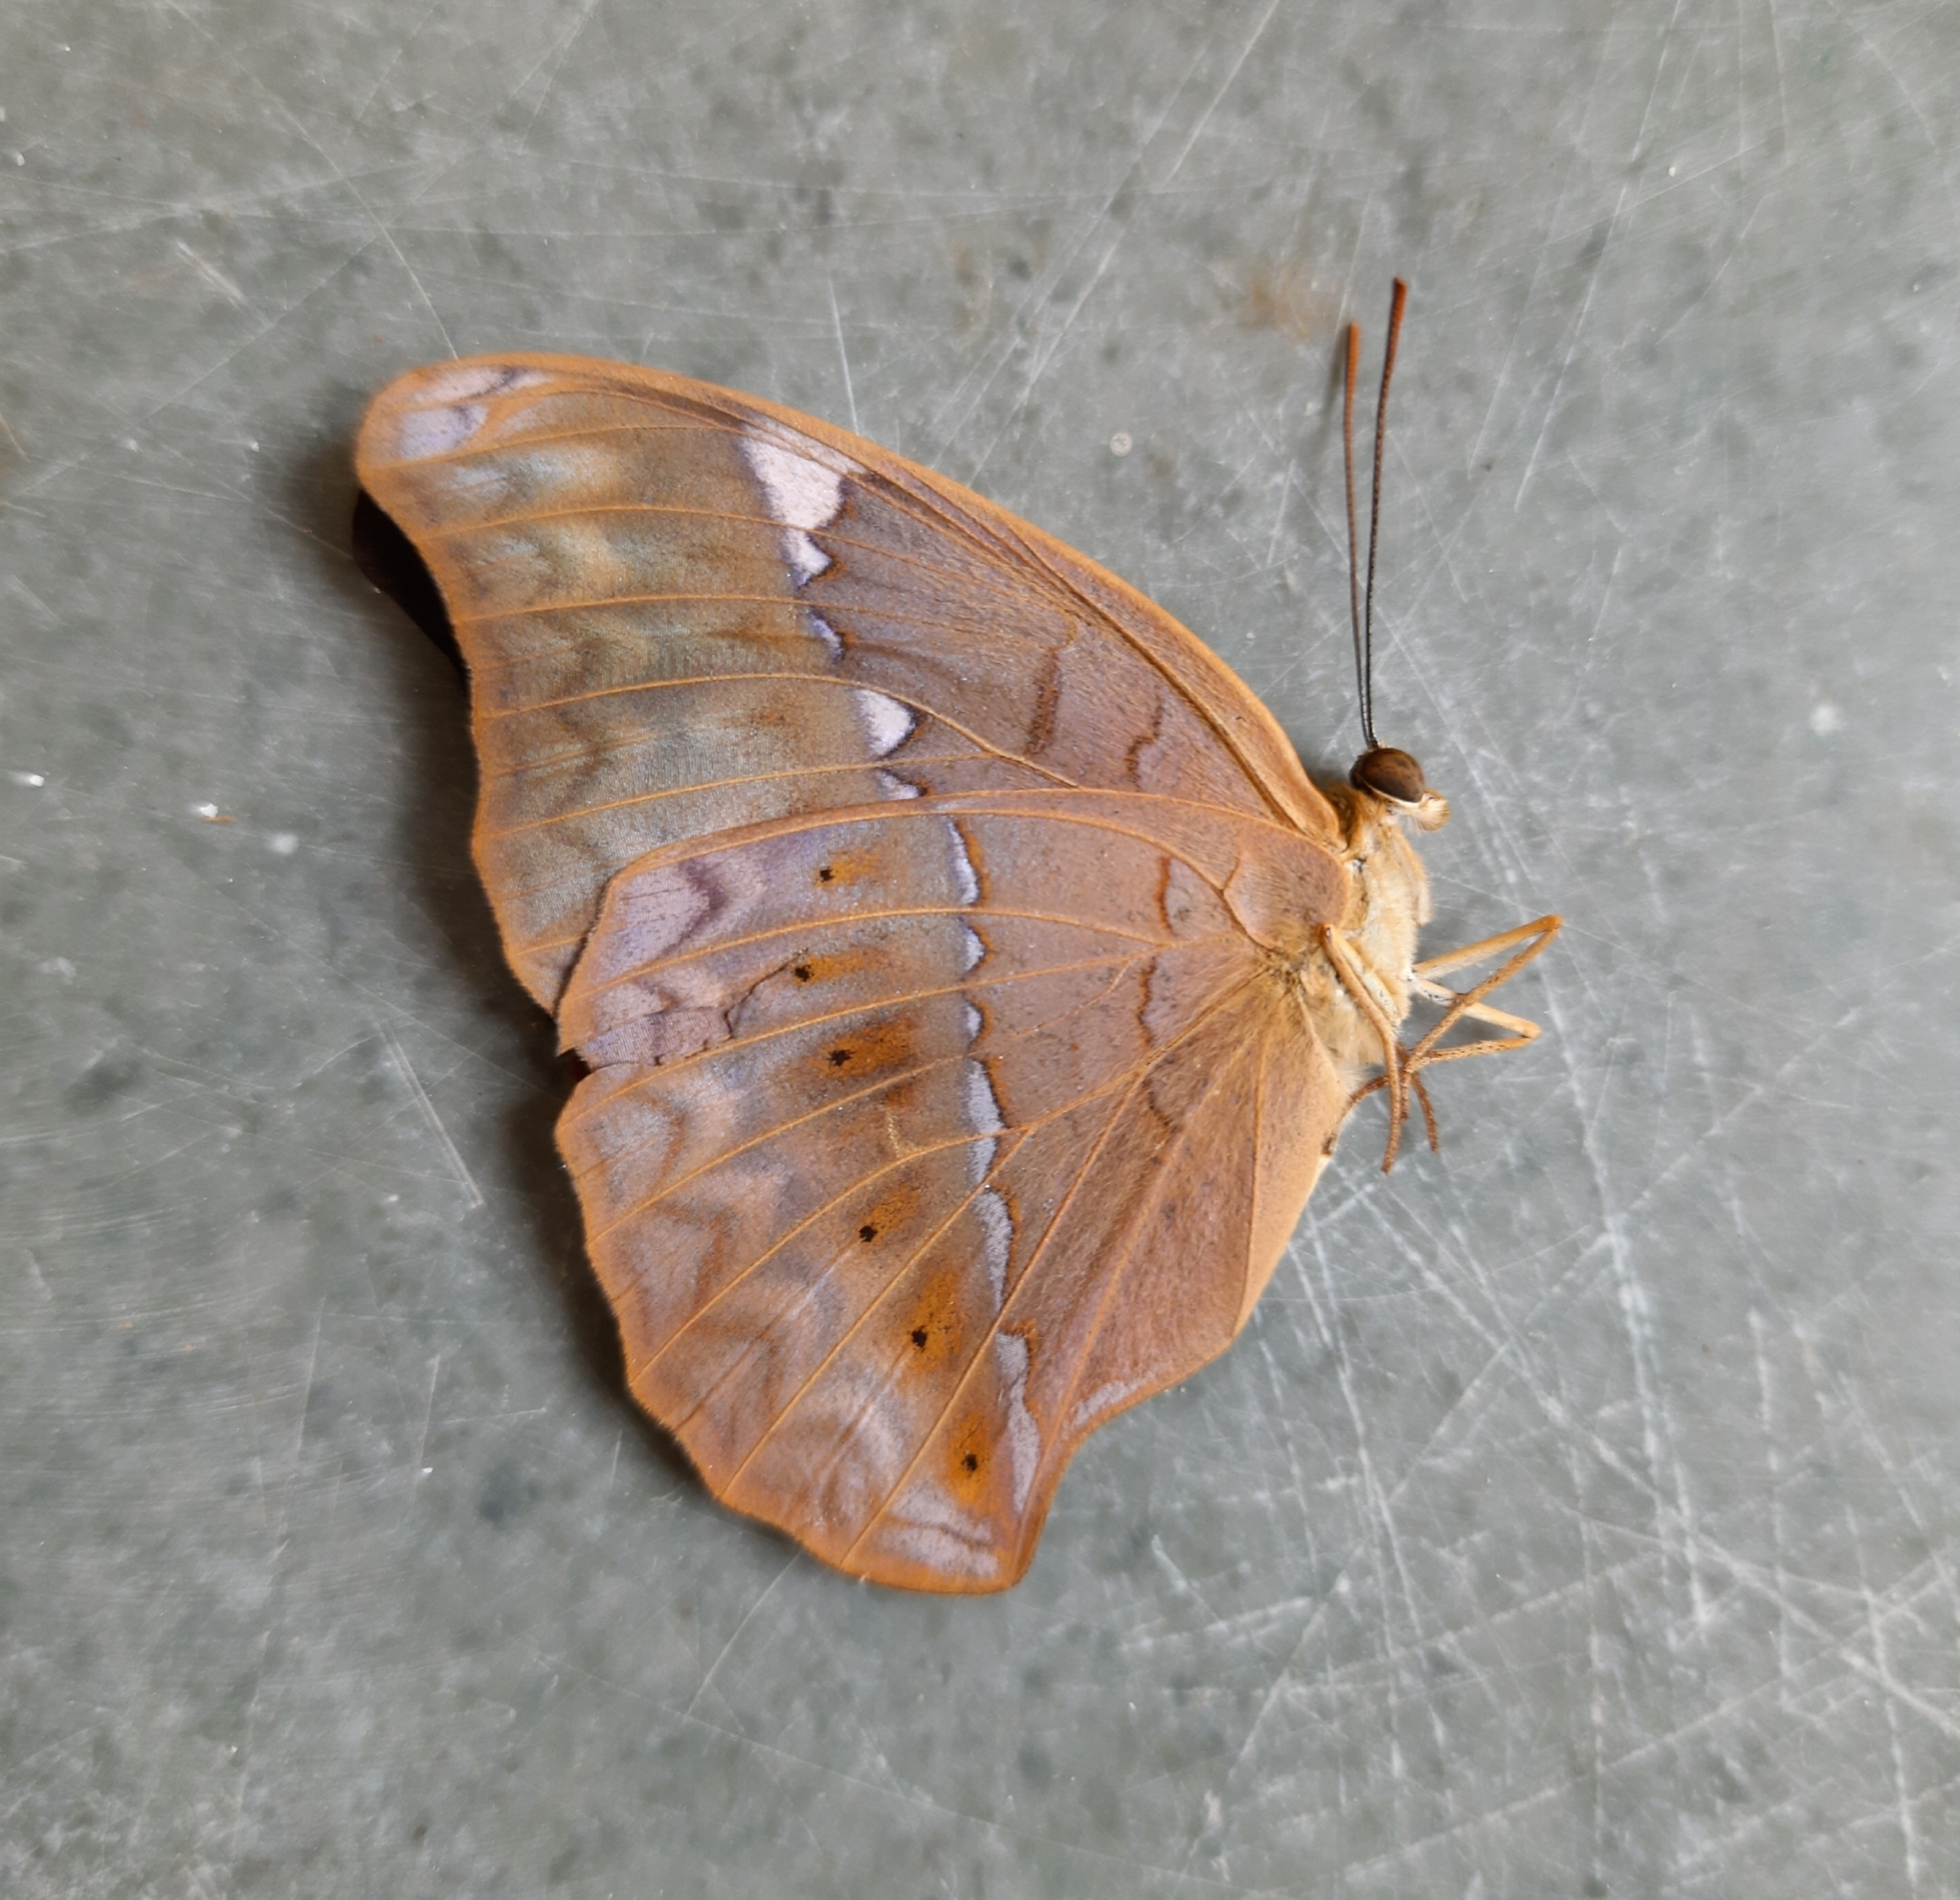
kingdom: Animalia
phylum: Arthropoda
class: Insecta
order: Lepidoptera
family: Nymphalidae
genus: Cirrochroa
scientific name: Cirrochroa thais
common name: Tamil yeoman
